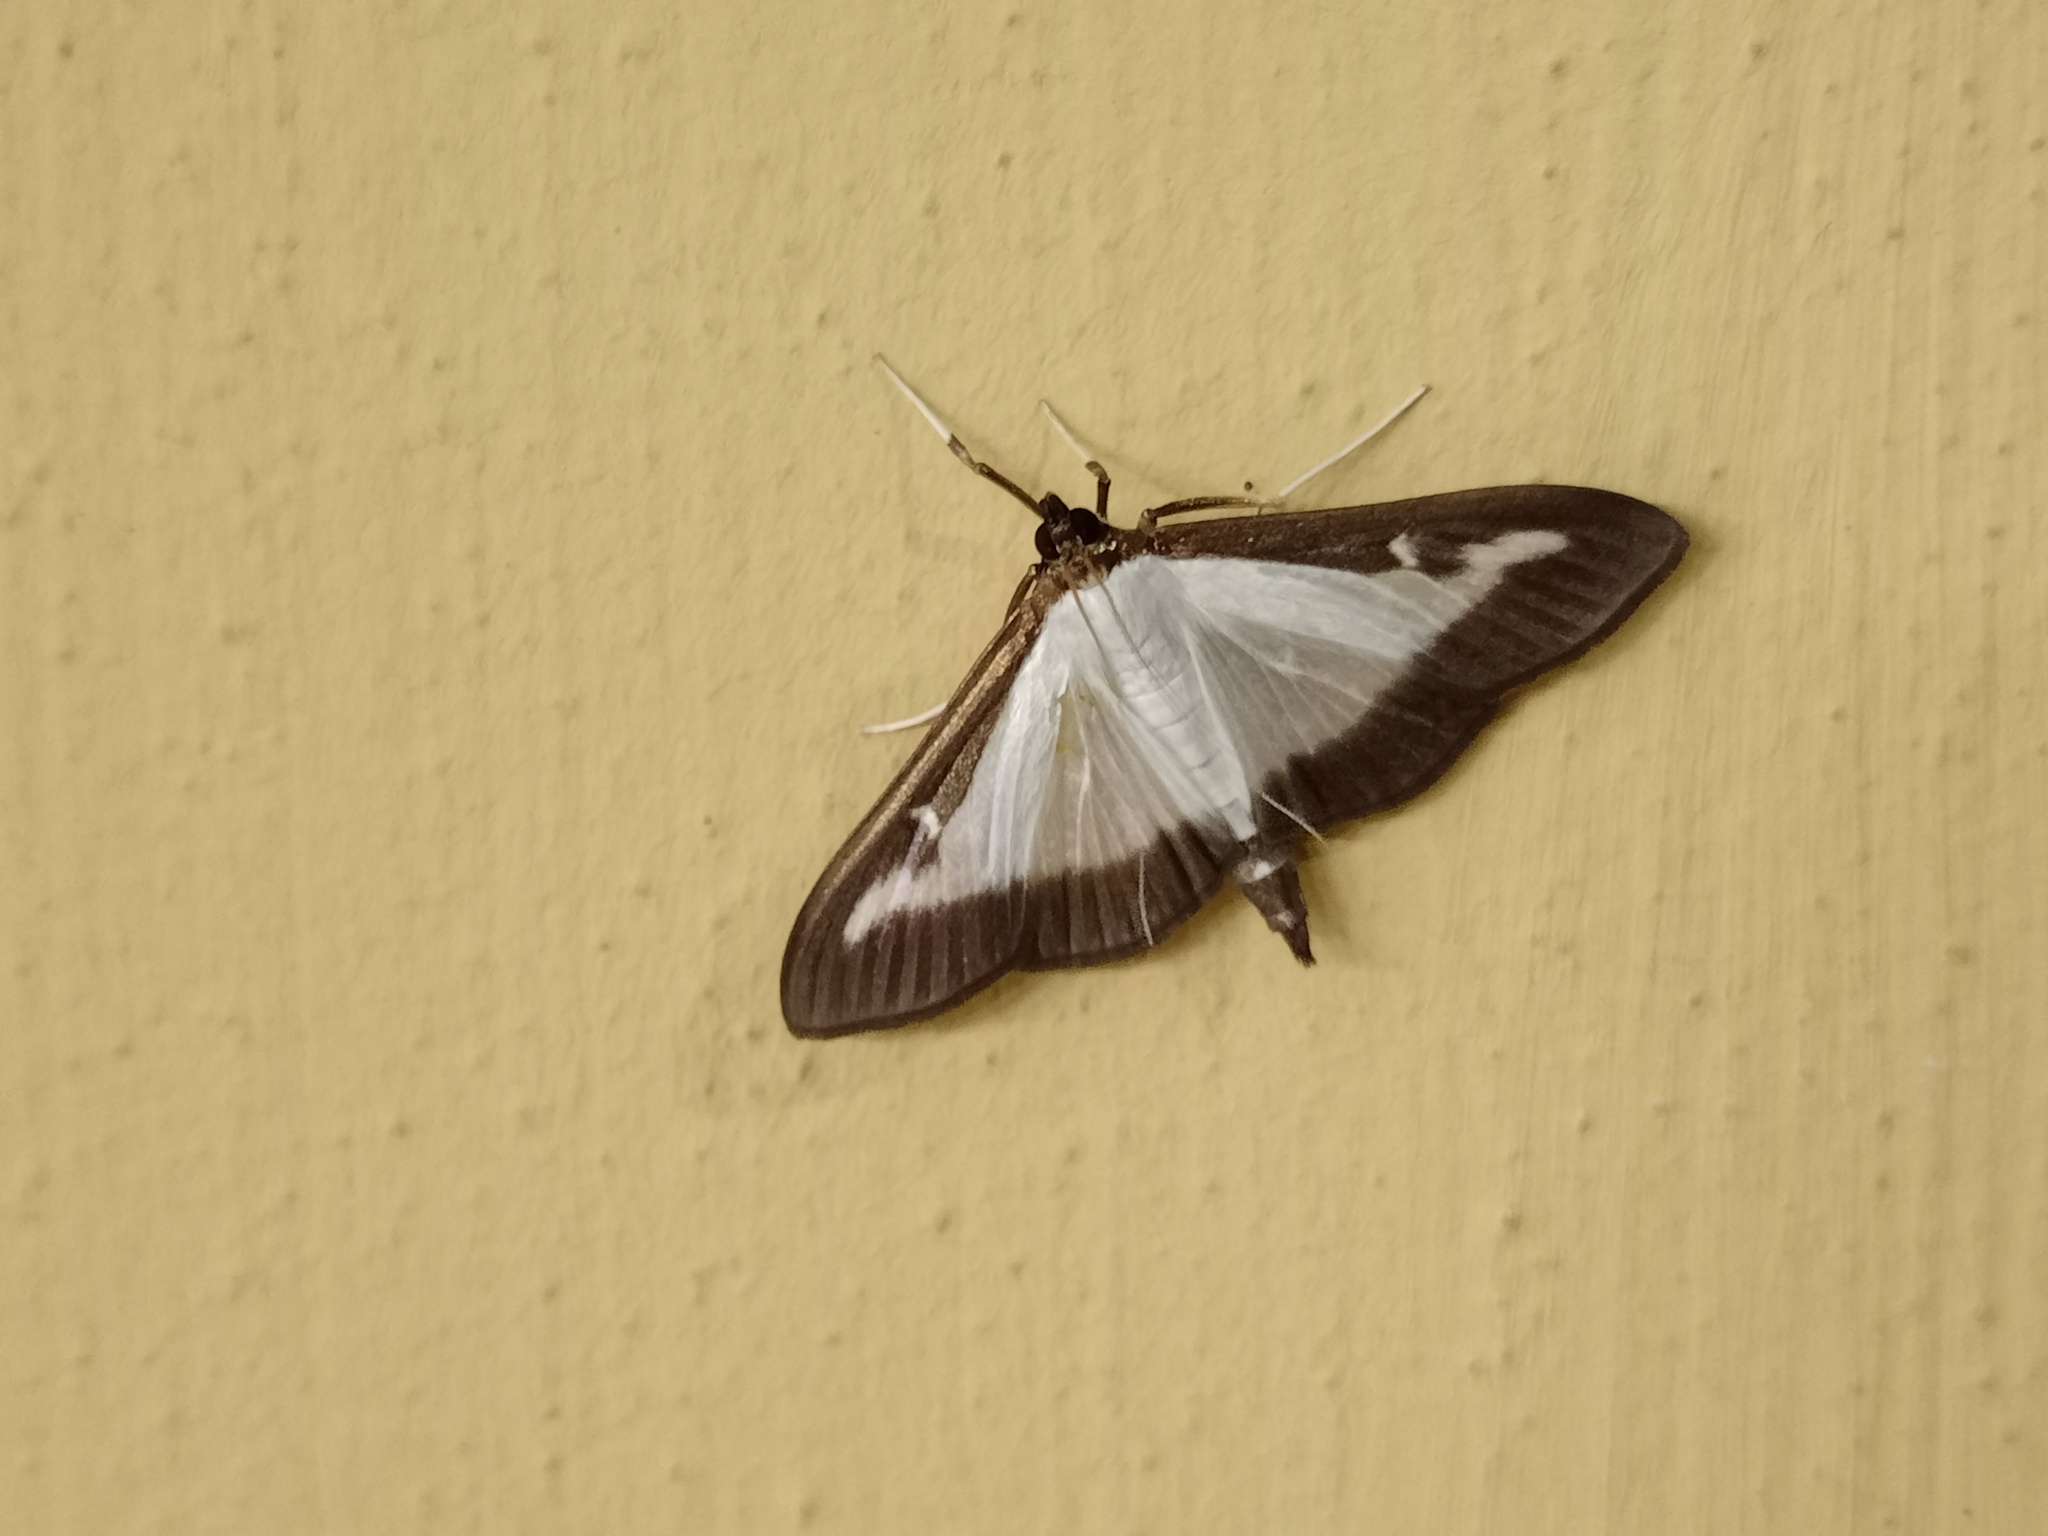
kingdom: Animalia
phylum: Arthropoda
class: Insecta
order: Lepidoptera
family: Crambidae
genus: Cydalima
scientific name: Cydalima perspectalis
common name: Box tree moth
